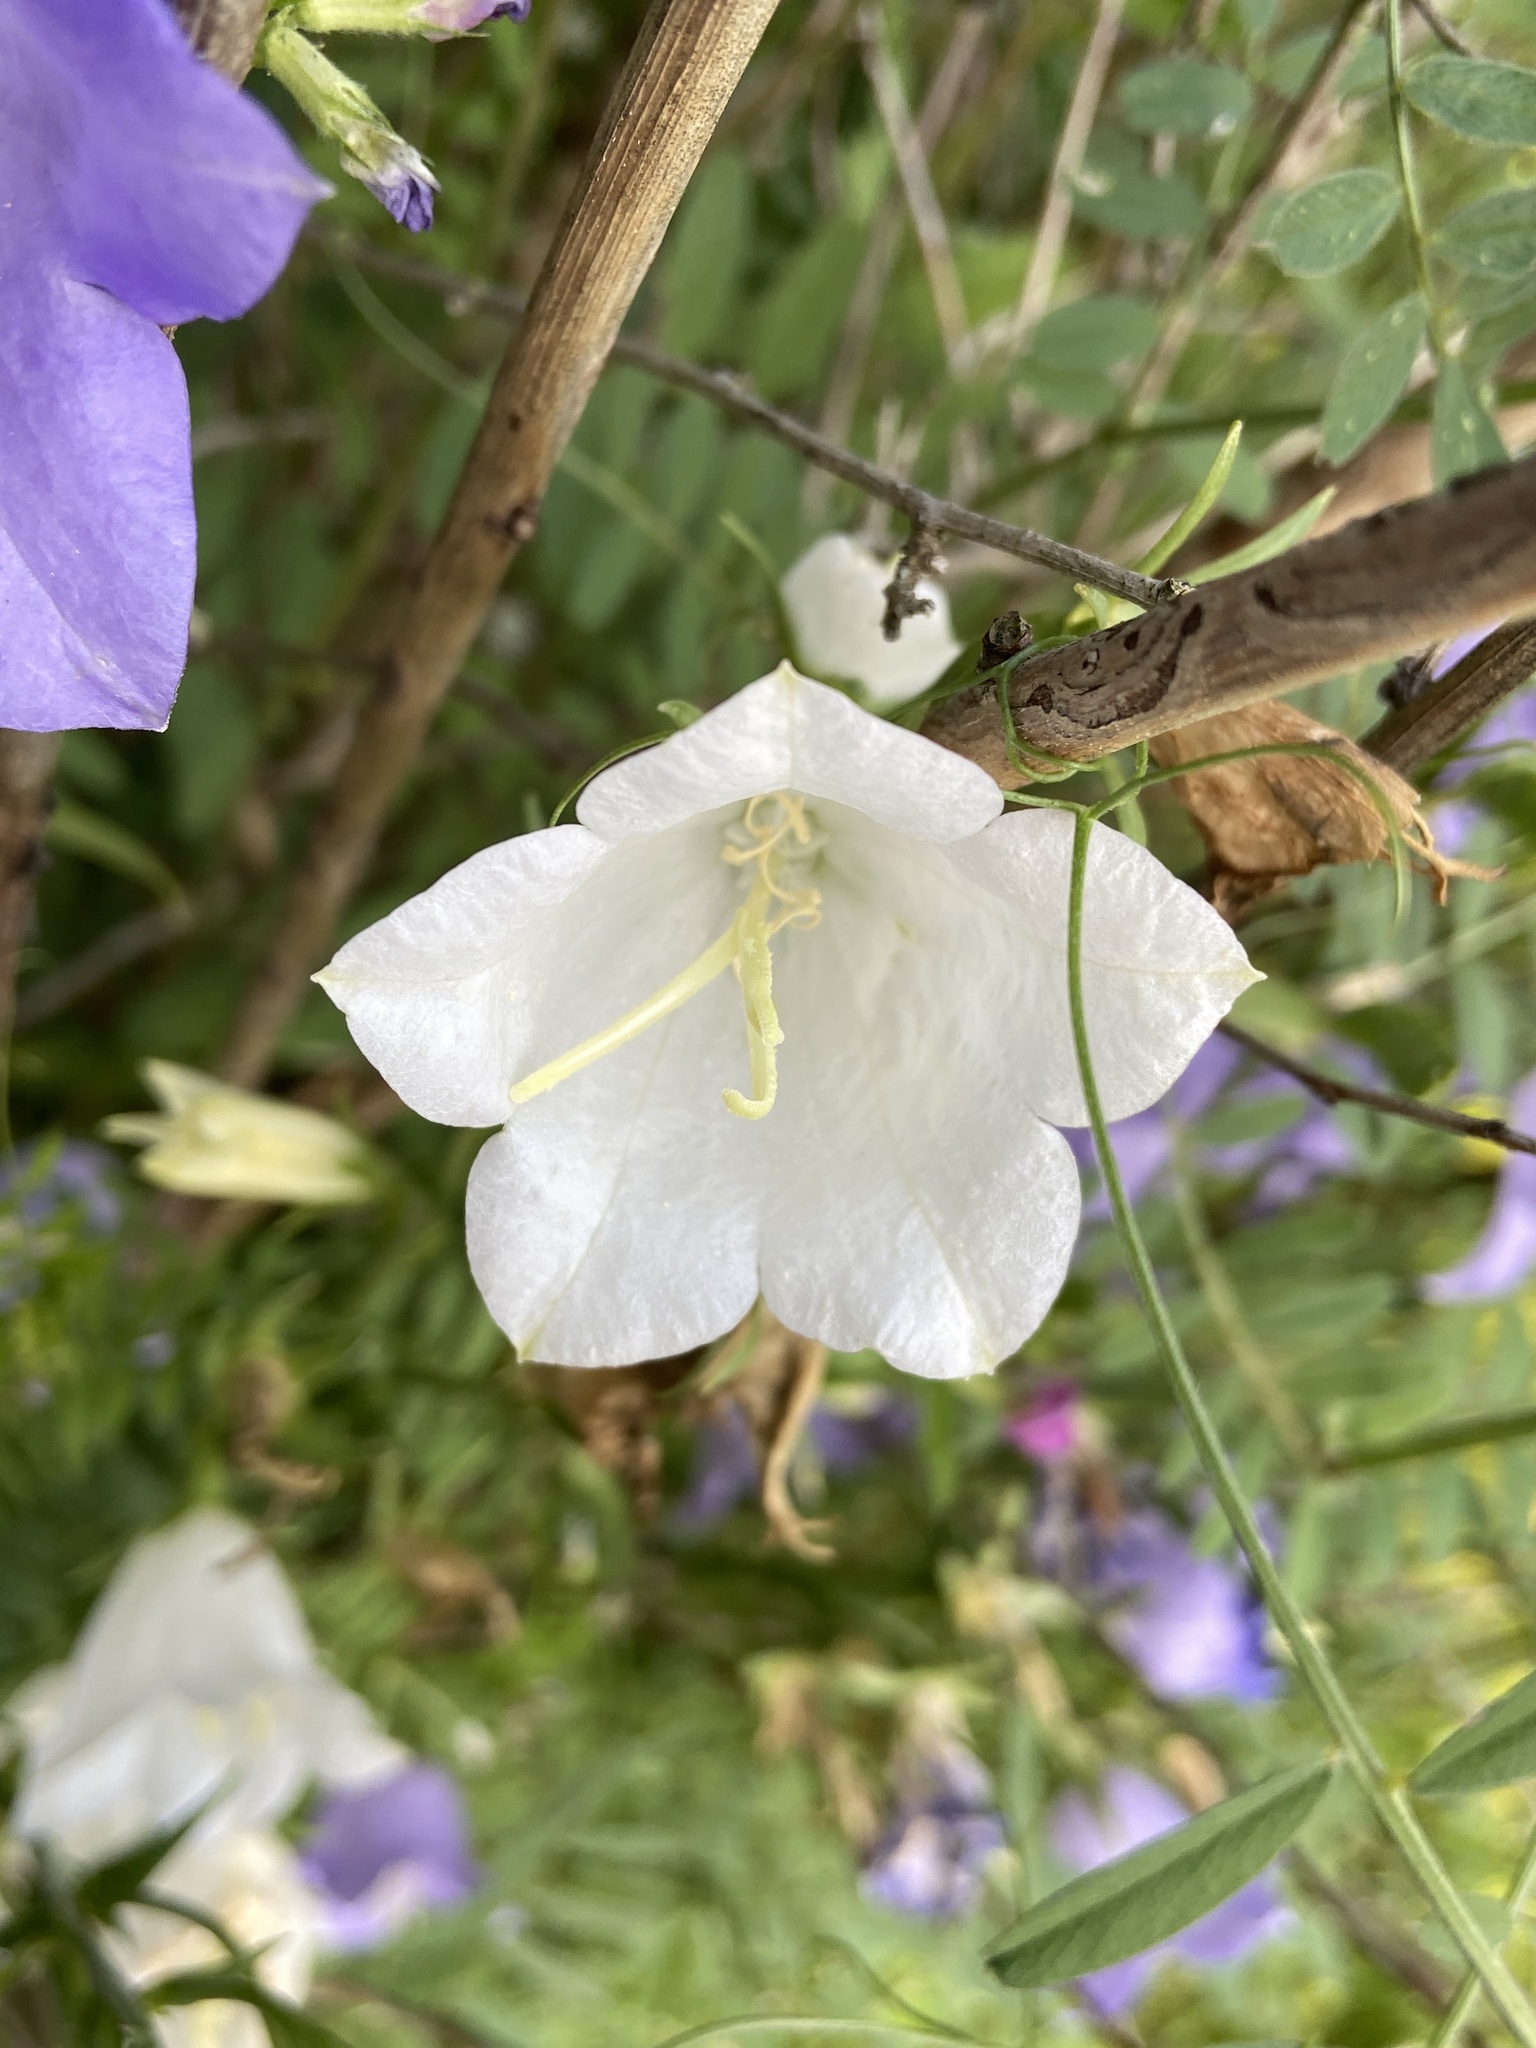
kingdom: Plantae
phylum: Tracheophyta
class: Magnoliopsida
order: Asterales
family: Campanulaceae
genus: Campanula
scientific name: Campanula persicifolia
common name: Peach-leaved bellflower
